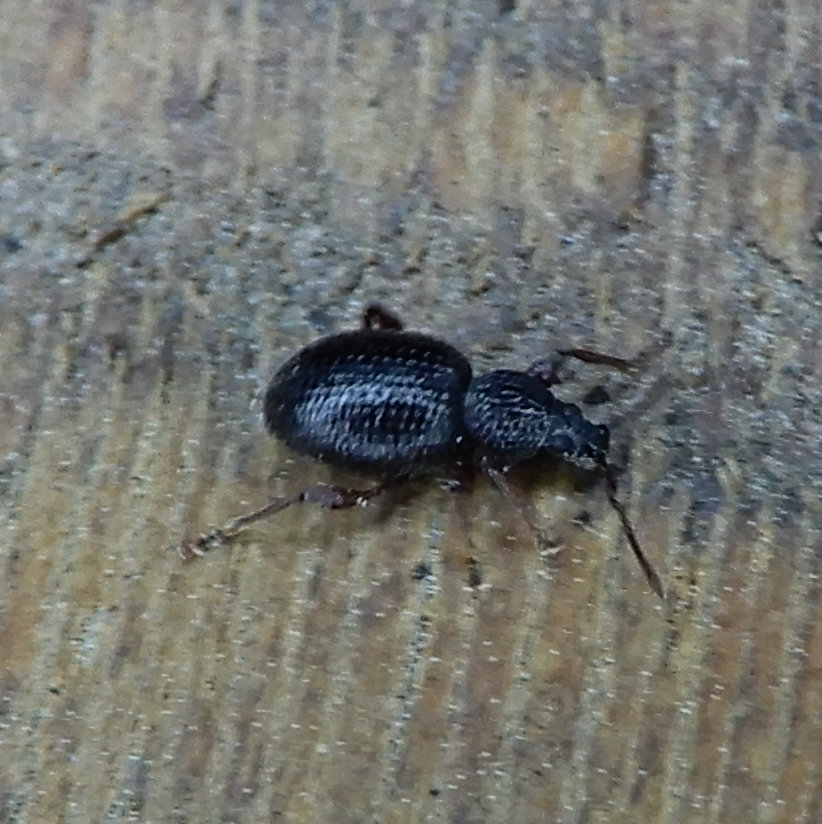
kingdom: Animalia
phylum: Arthropoda
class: Insecta
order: Coleoptera
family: Curculionidae
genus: Otiorhynchus
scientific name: Otiorhynchus ovatus
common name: Strawberry root weevil
